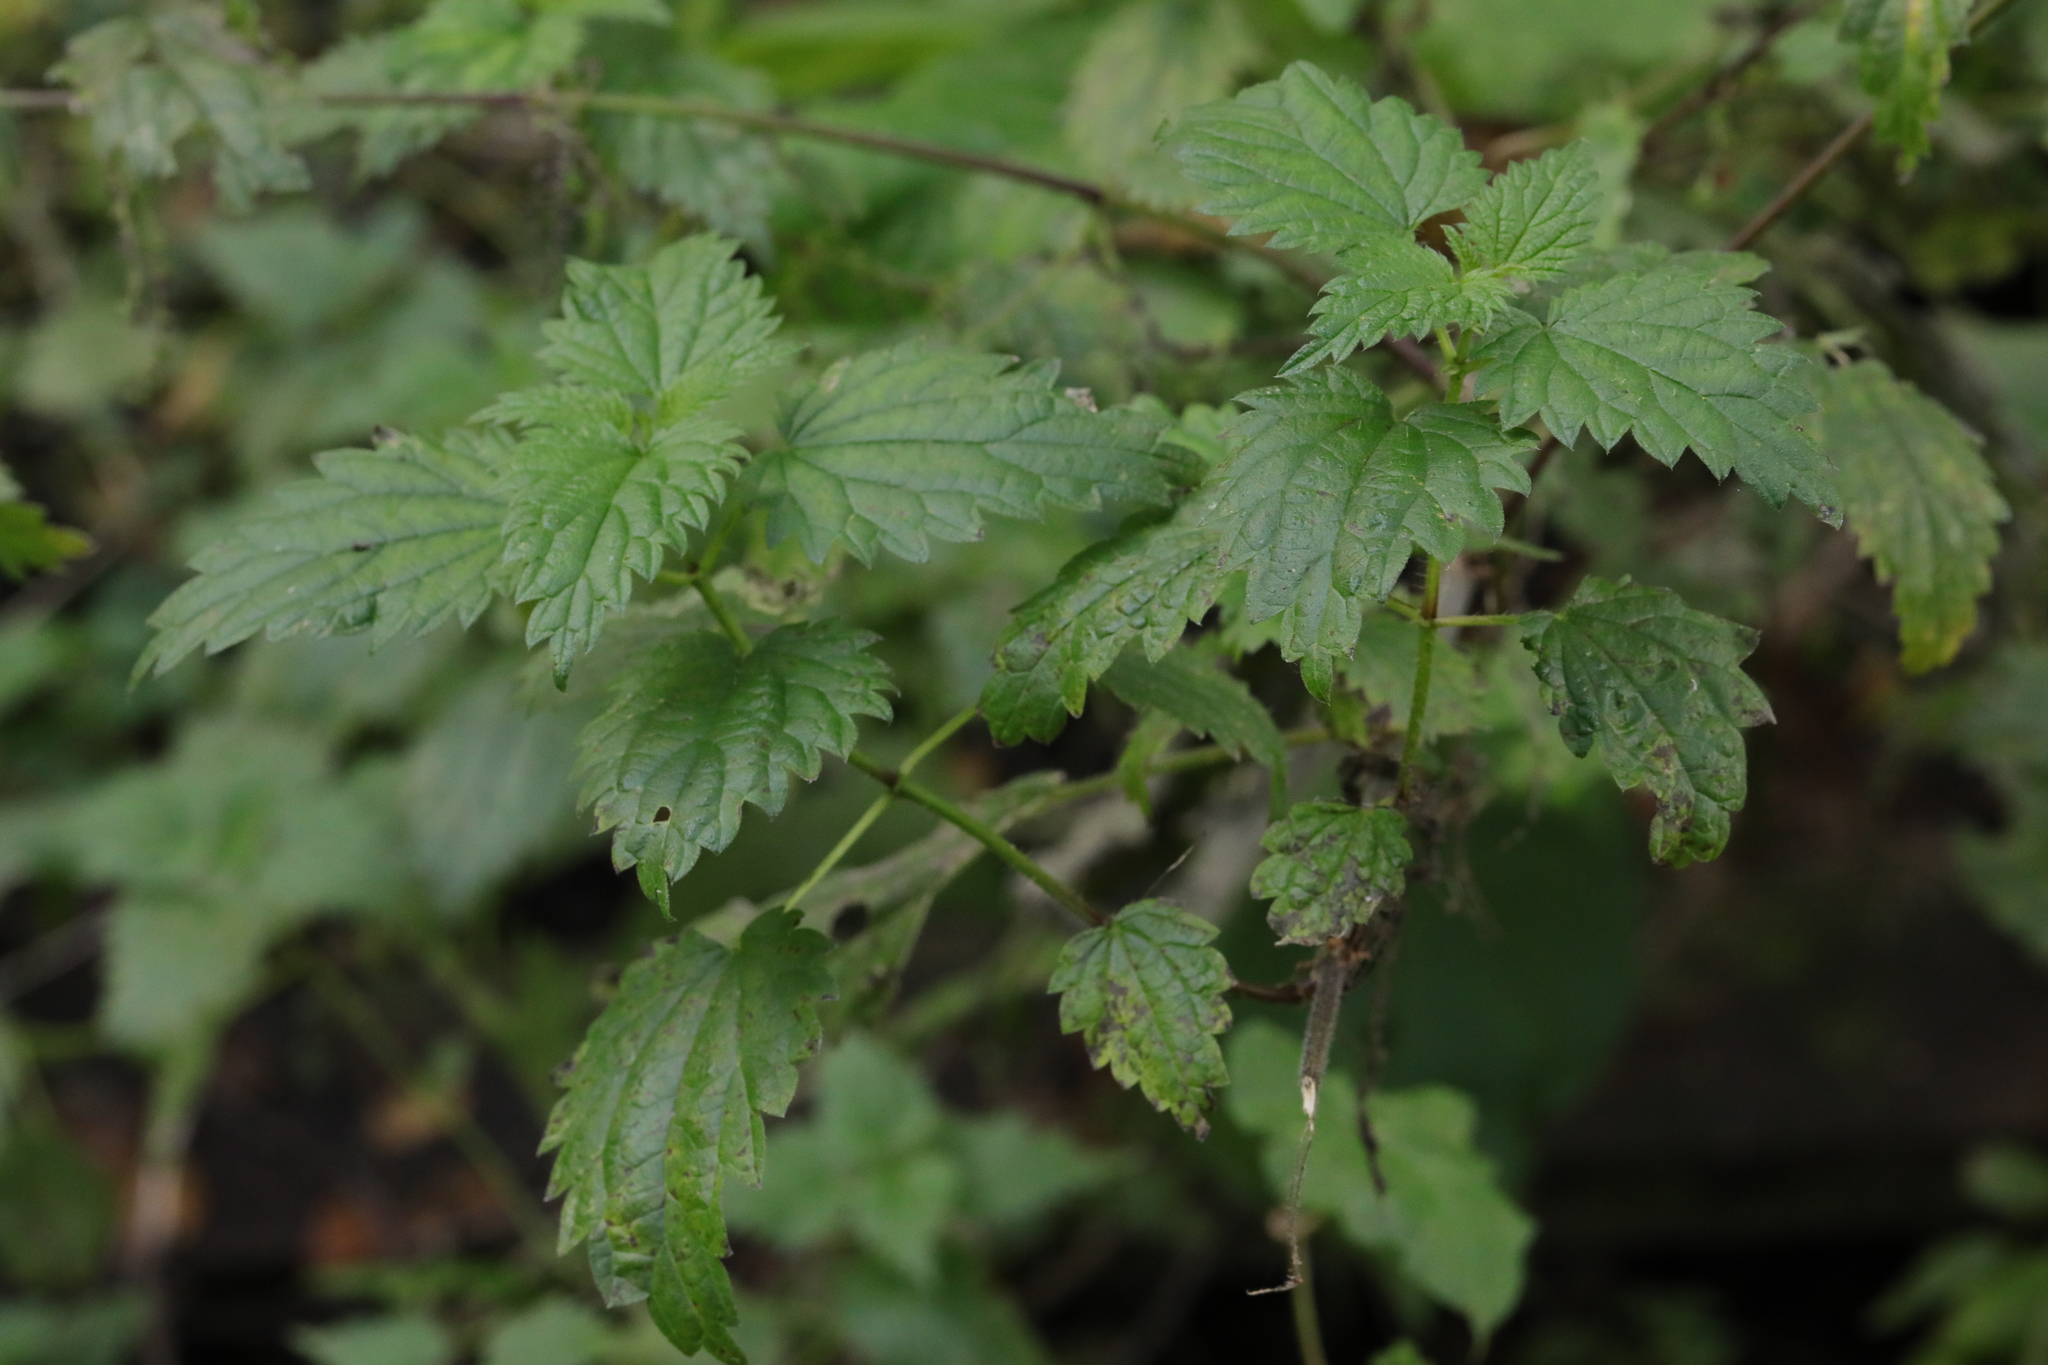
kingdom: Plantae
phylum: Tracheophyta
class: Magnoliopsida
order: Rosales
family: Urticaceae
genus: Urtica
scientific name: Urtica dioica
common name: Common nettle
